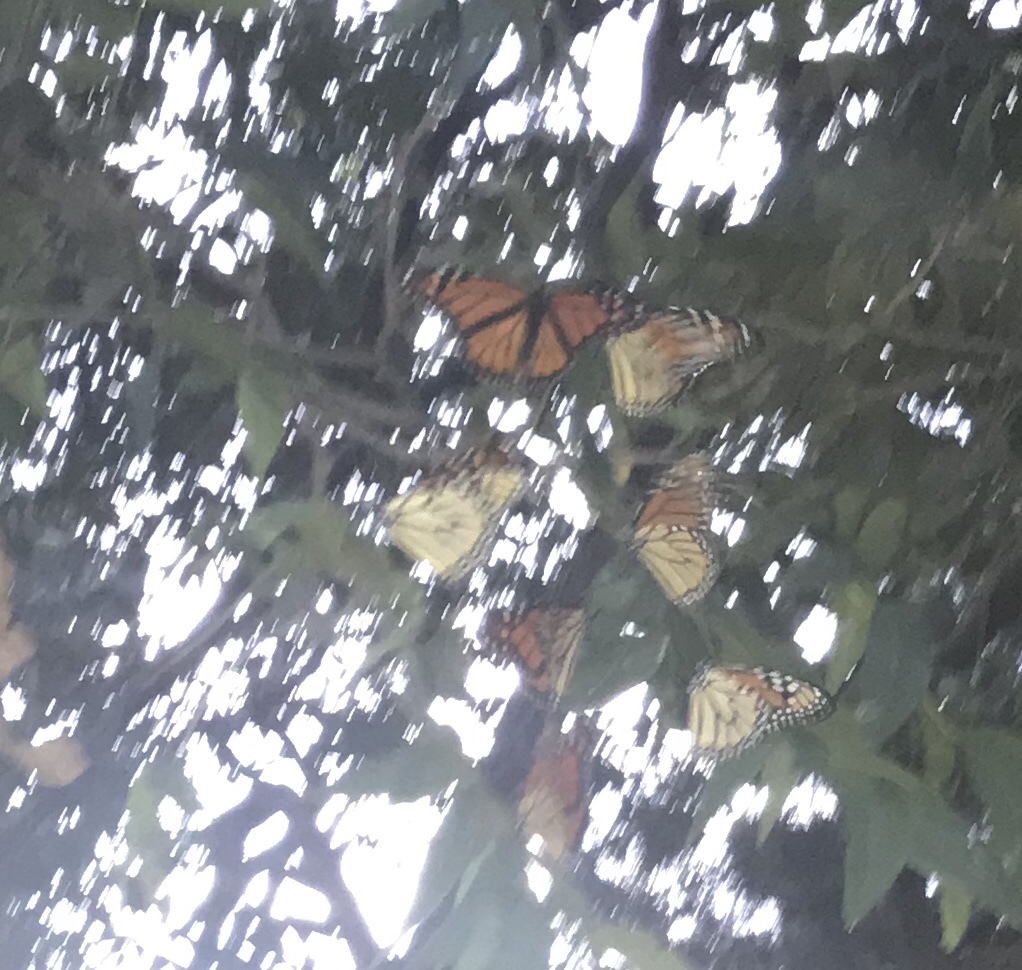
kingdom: Animalia
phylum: Arthropoda
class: Insecta
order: Lepidoptera
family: Nymphalidae
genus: Danaus
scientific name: Danaus plexippus
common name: Monarch
